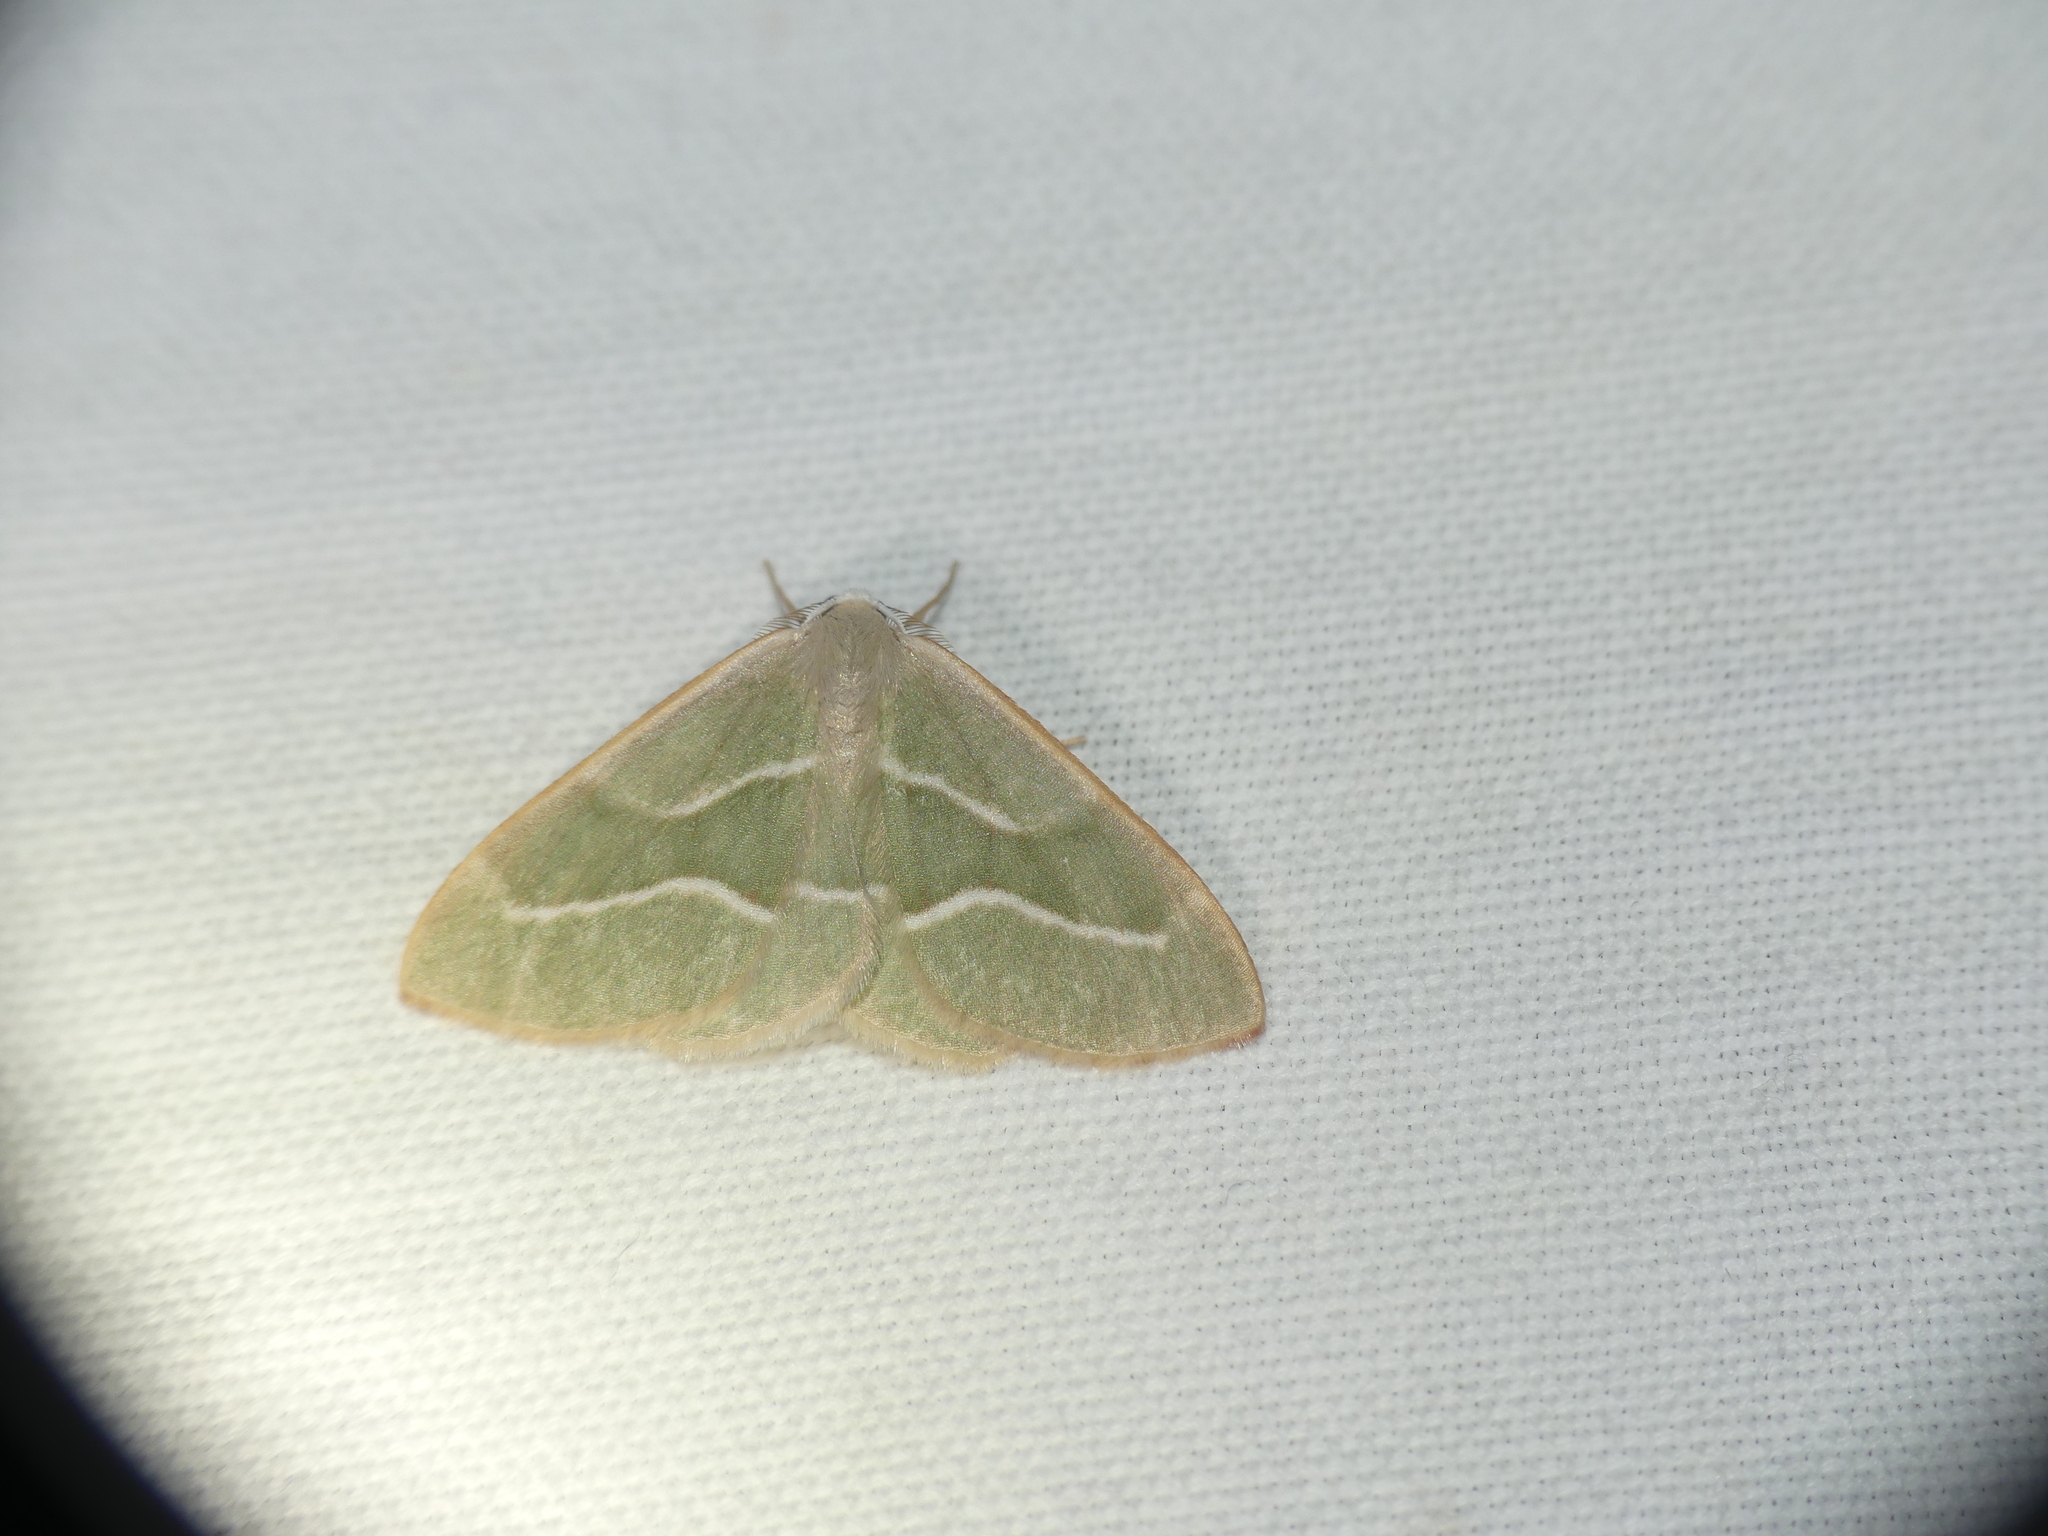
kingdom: Animalia
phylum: Arthropoda
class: Insecta
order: Lepidoptera
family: Geometridae
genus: Hylaea
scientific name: Hylaea fasciaria
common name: Barred red
